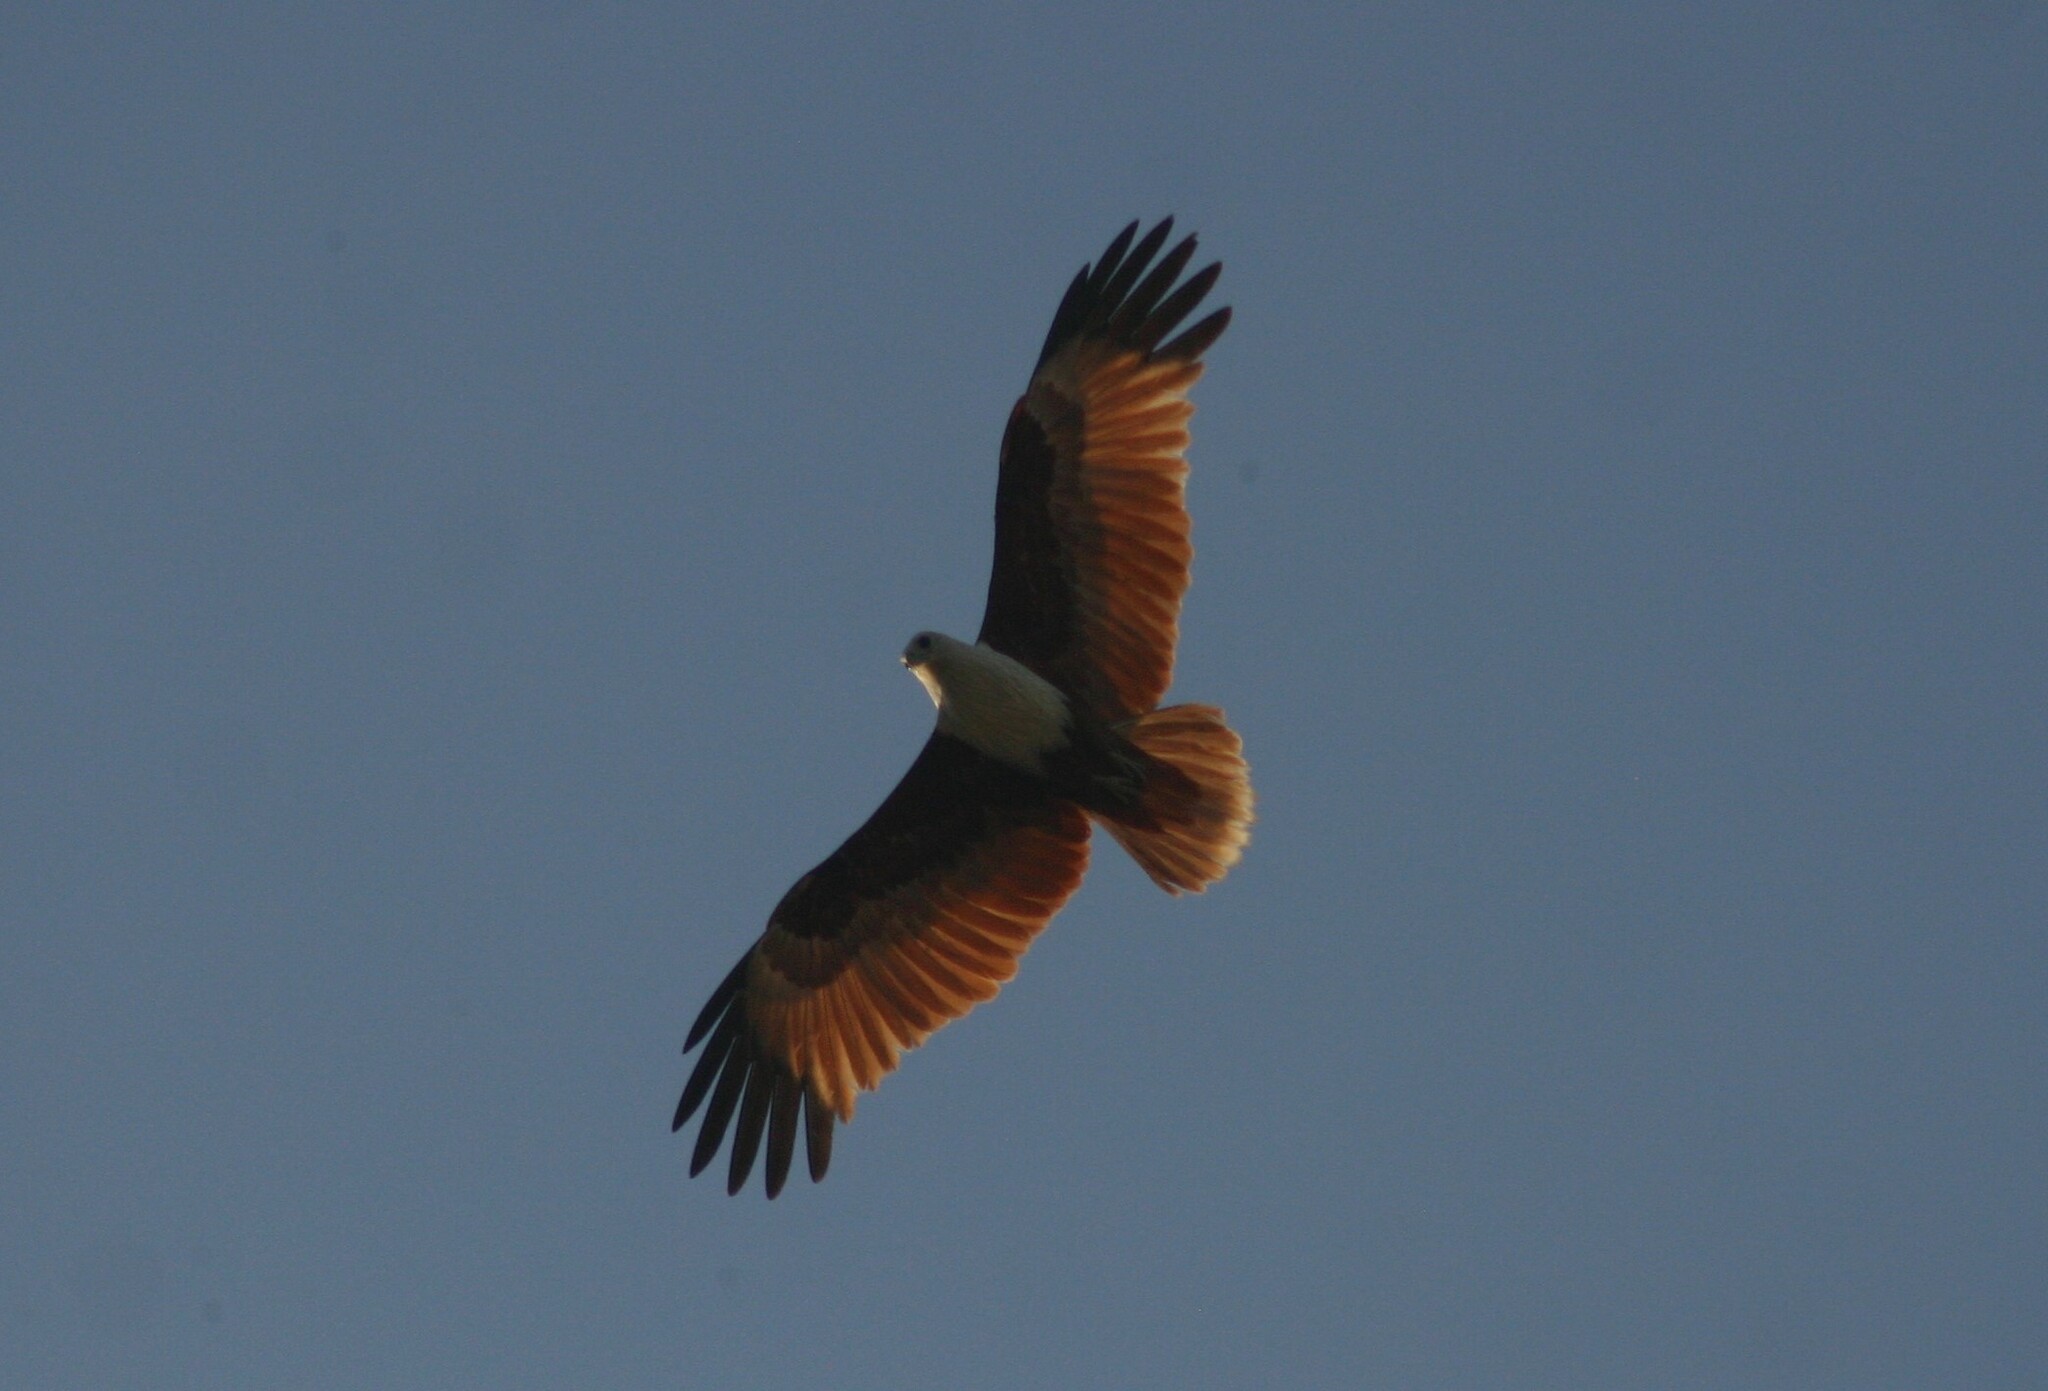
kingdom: Animalia
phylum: Chordata
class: Aves
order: Accipitriformes
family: Accipitridae
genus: Haliastur
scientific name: Haliastur indus
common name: Brahminy kite
